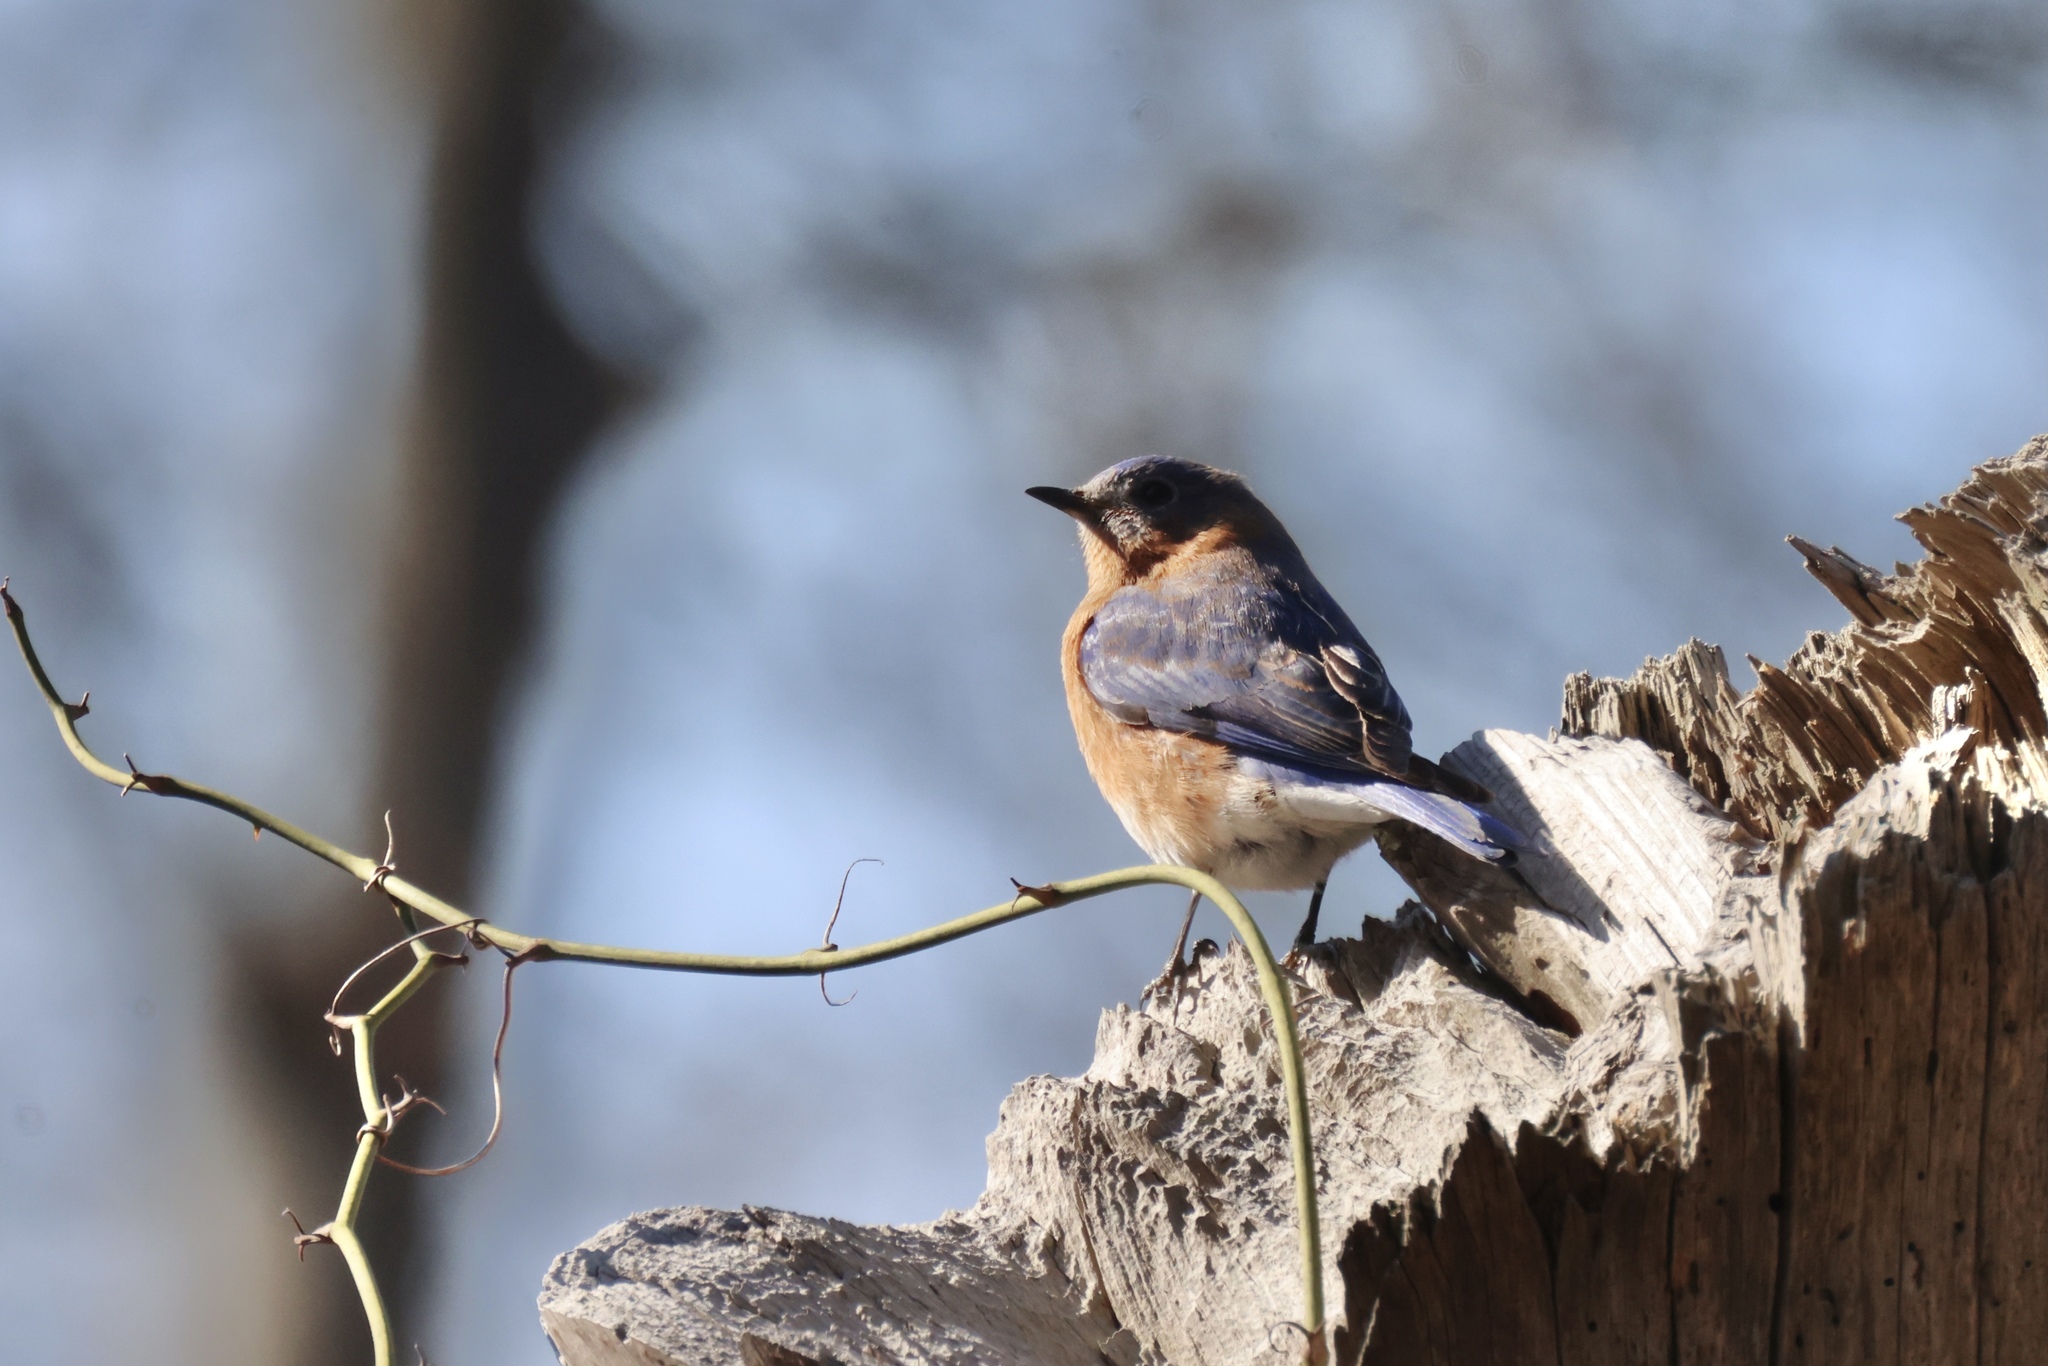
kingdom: Animalia
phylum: Chordata
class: Aves
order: Passeriformes
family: Turdidae
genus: Sialia
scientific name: Sialia sialis
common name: Eastern bluebird
